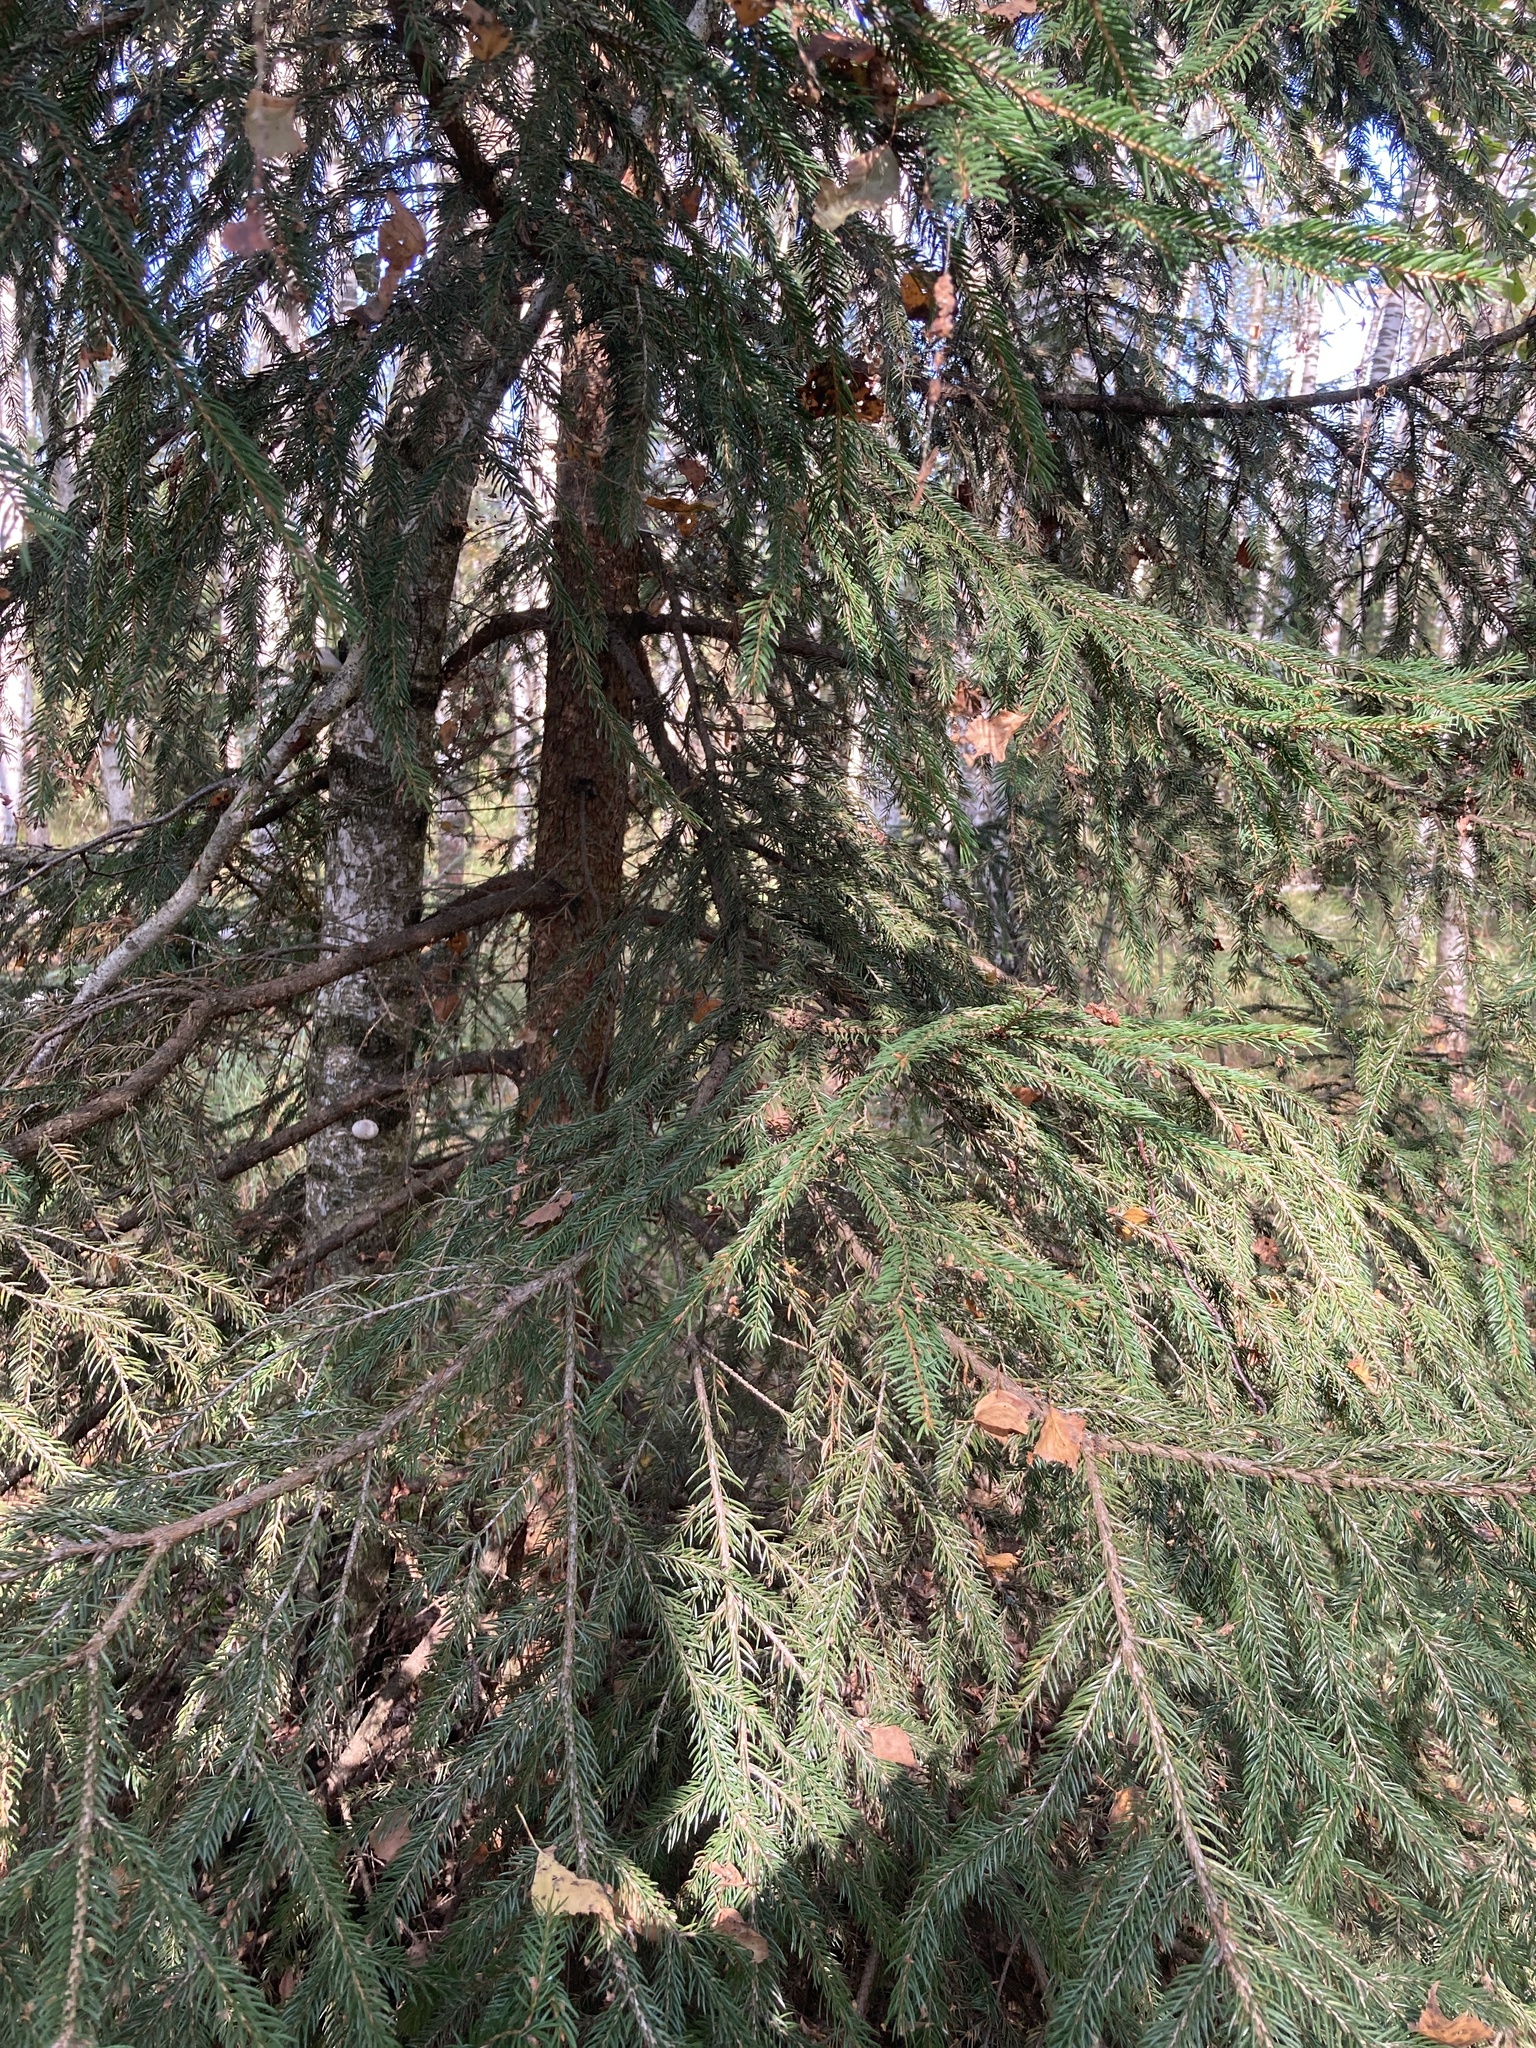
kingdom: Plantae
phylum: Tracheophyta
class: Pinopsida
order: Pinales
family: Pinaceae
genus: Picea
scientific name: Picea abies
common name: Norway spruce
